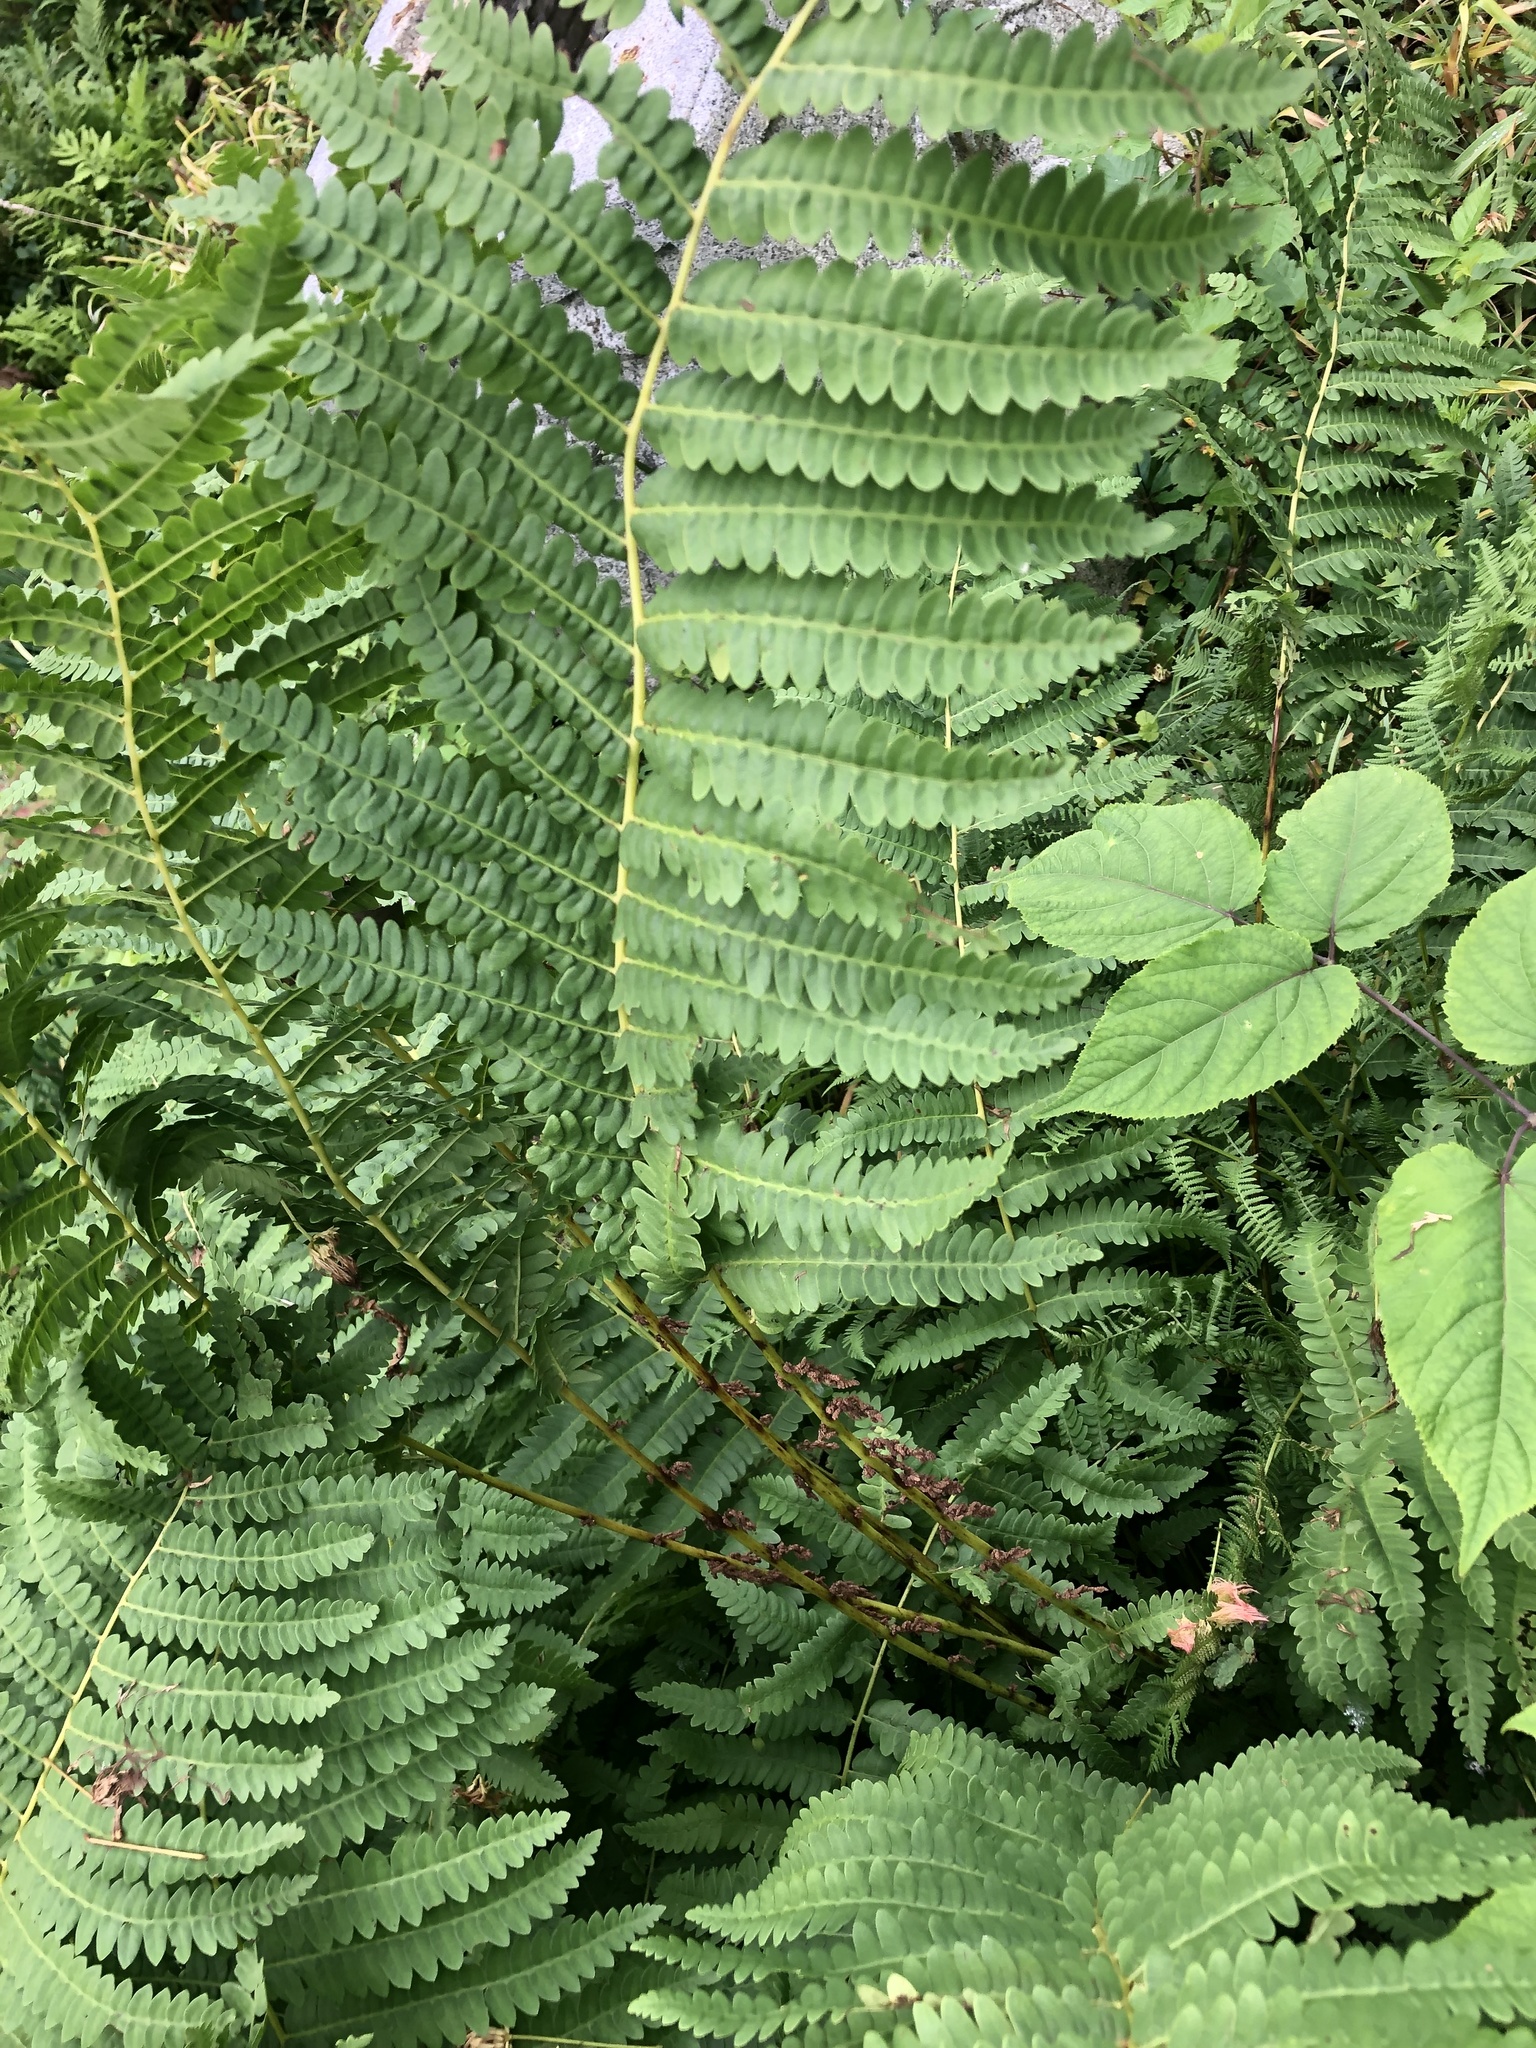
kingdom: Plantae
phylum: Tracheophyta
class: Polypodiopsida
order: Osmundales
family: Osmundaceae
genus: Claytosmunda
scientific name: Claytosmunda claytoniana
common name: Clayton's fern
